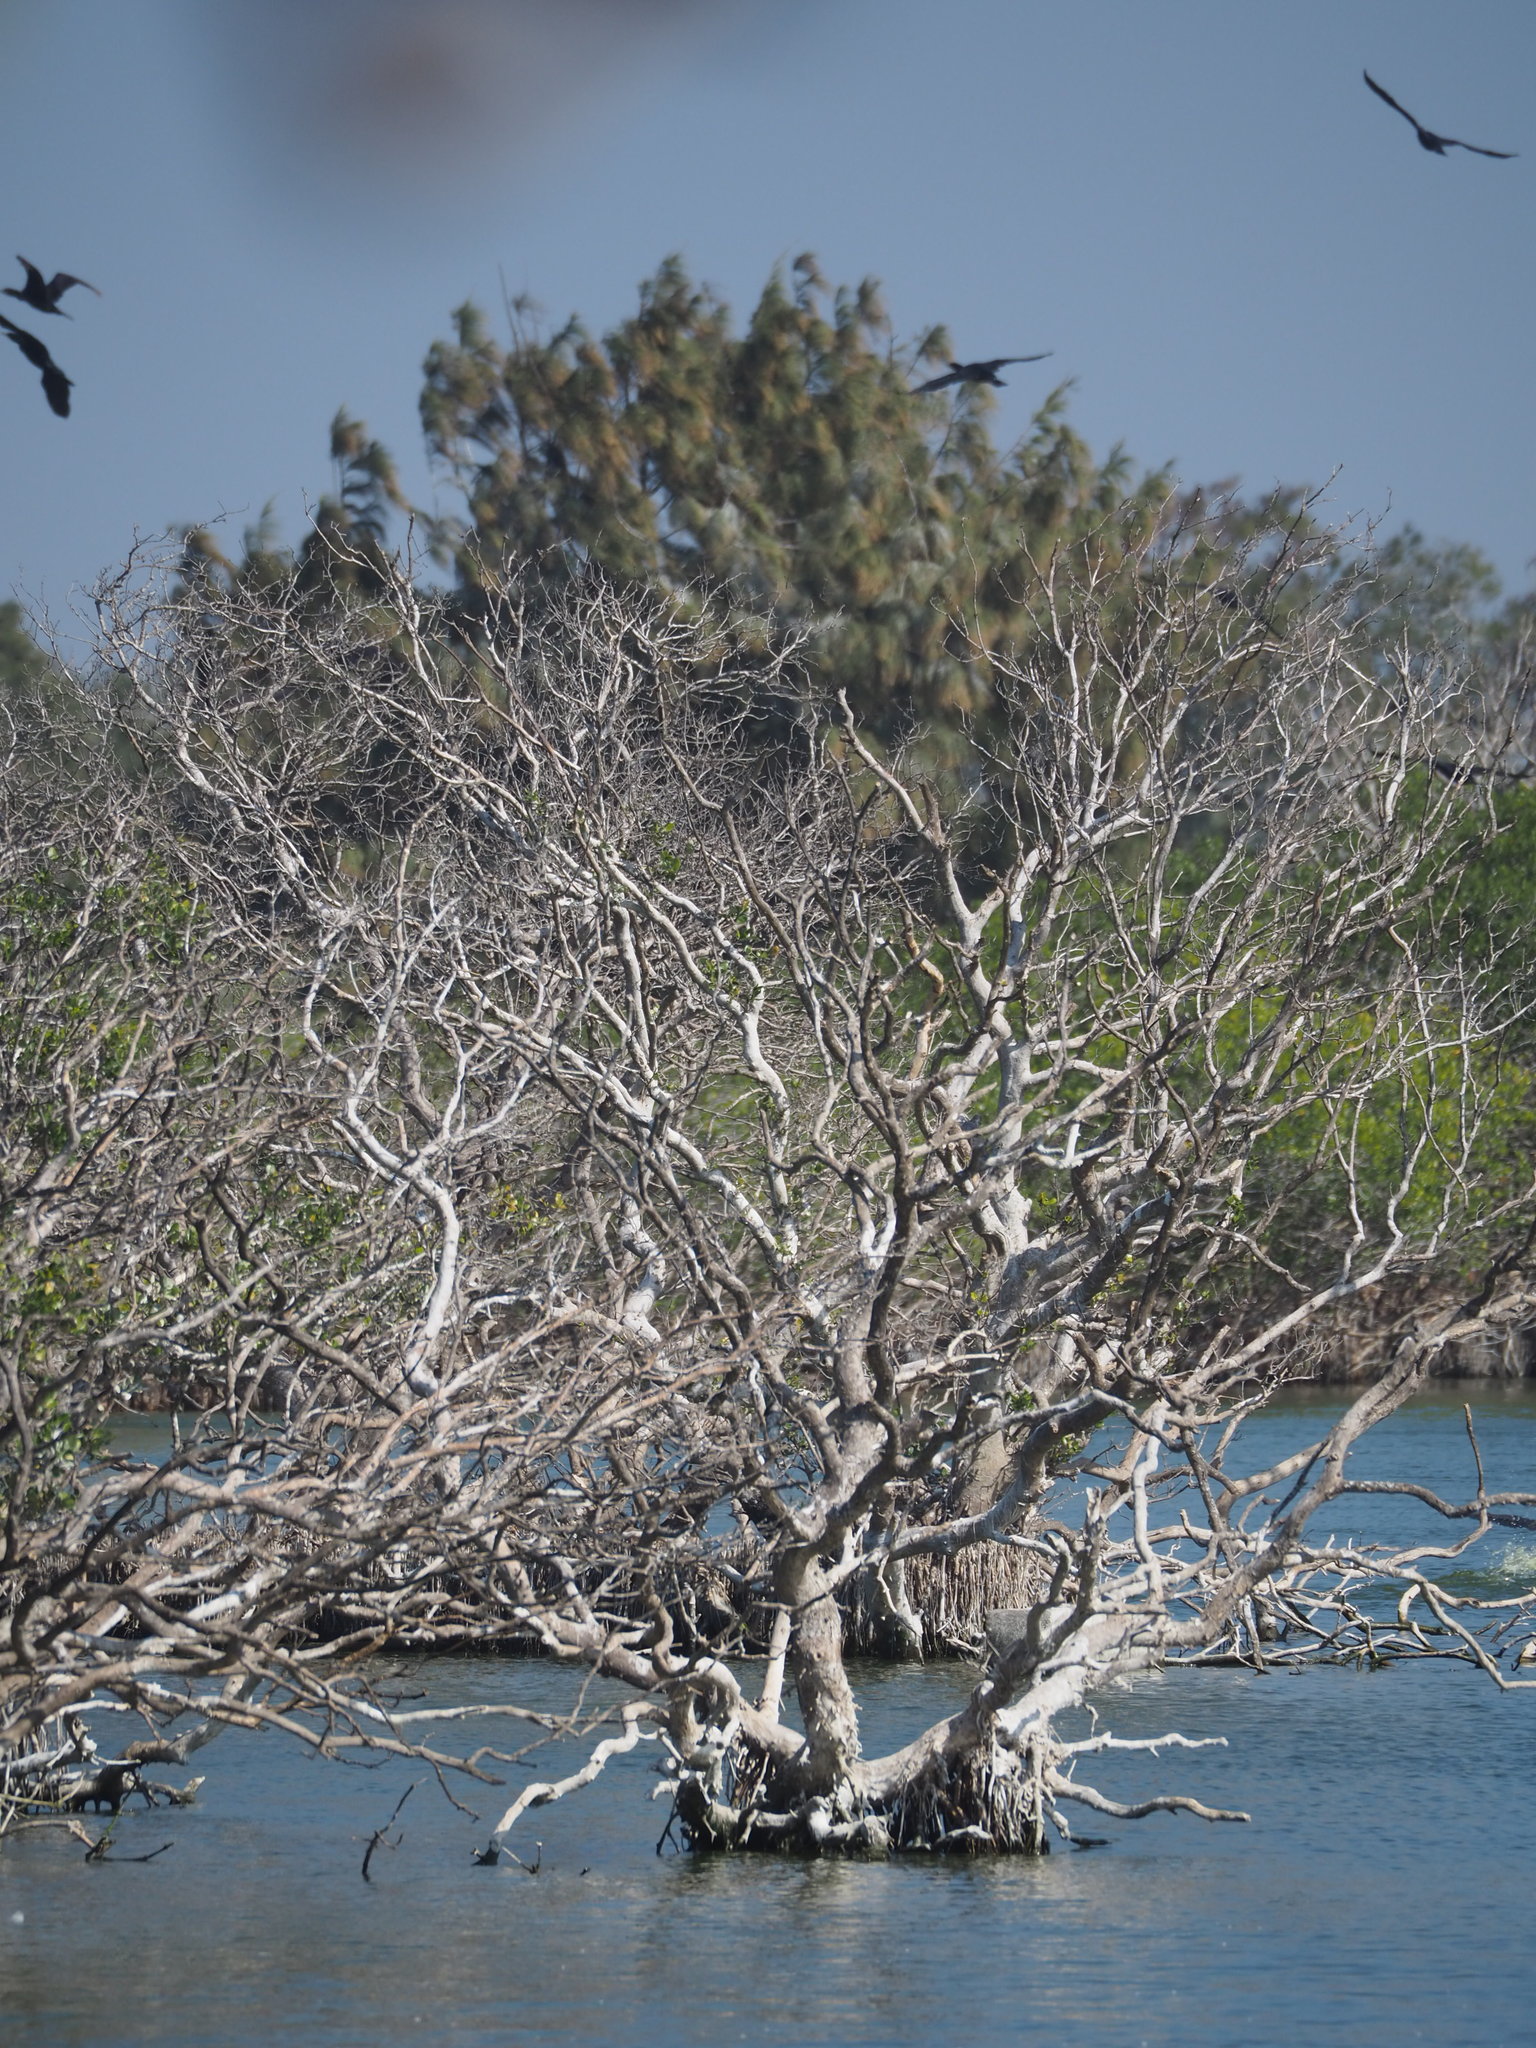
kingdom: Plantae
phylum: Tracheophyta
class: Magnoliopsida
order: Lamiales
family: Acanthaceae
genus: Avicennia
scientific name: Avicennia marina
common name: Gray mangrove
